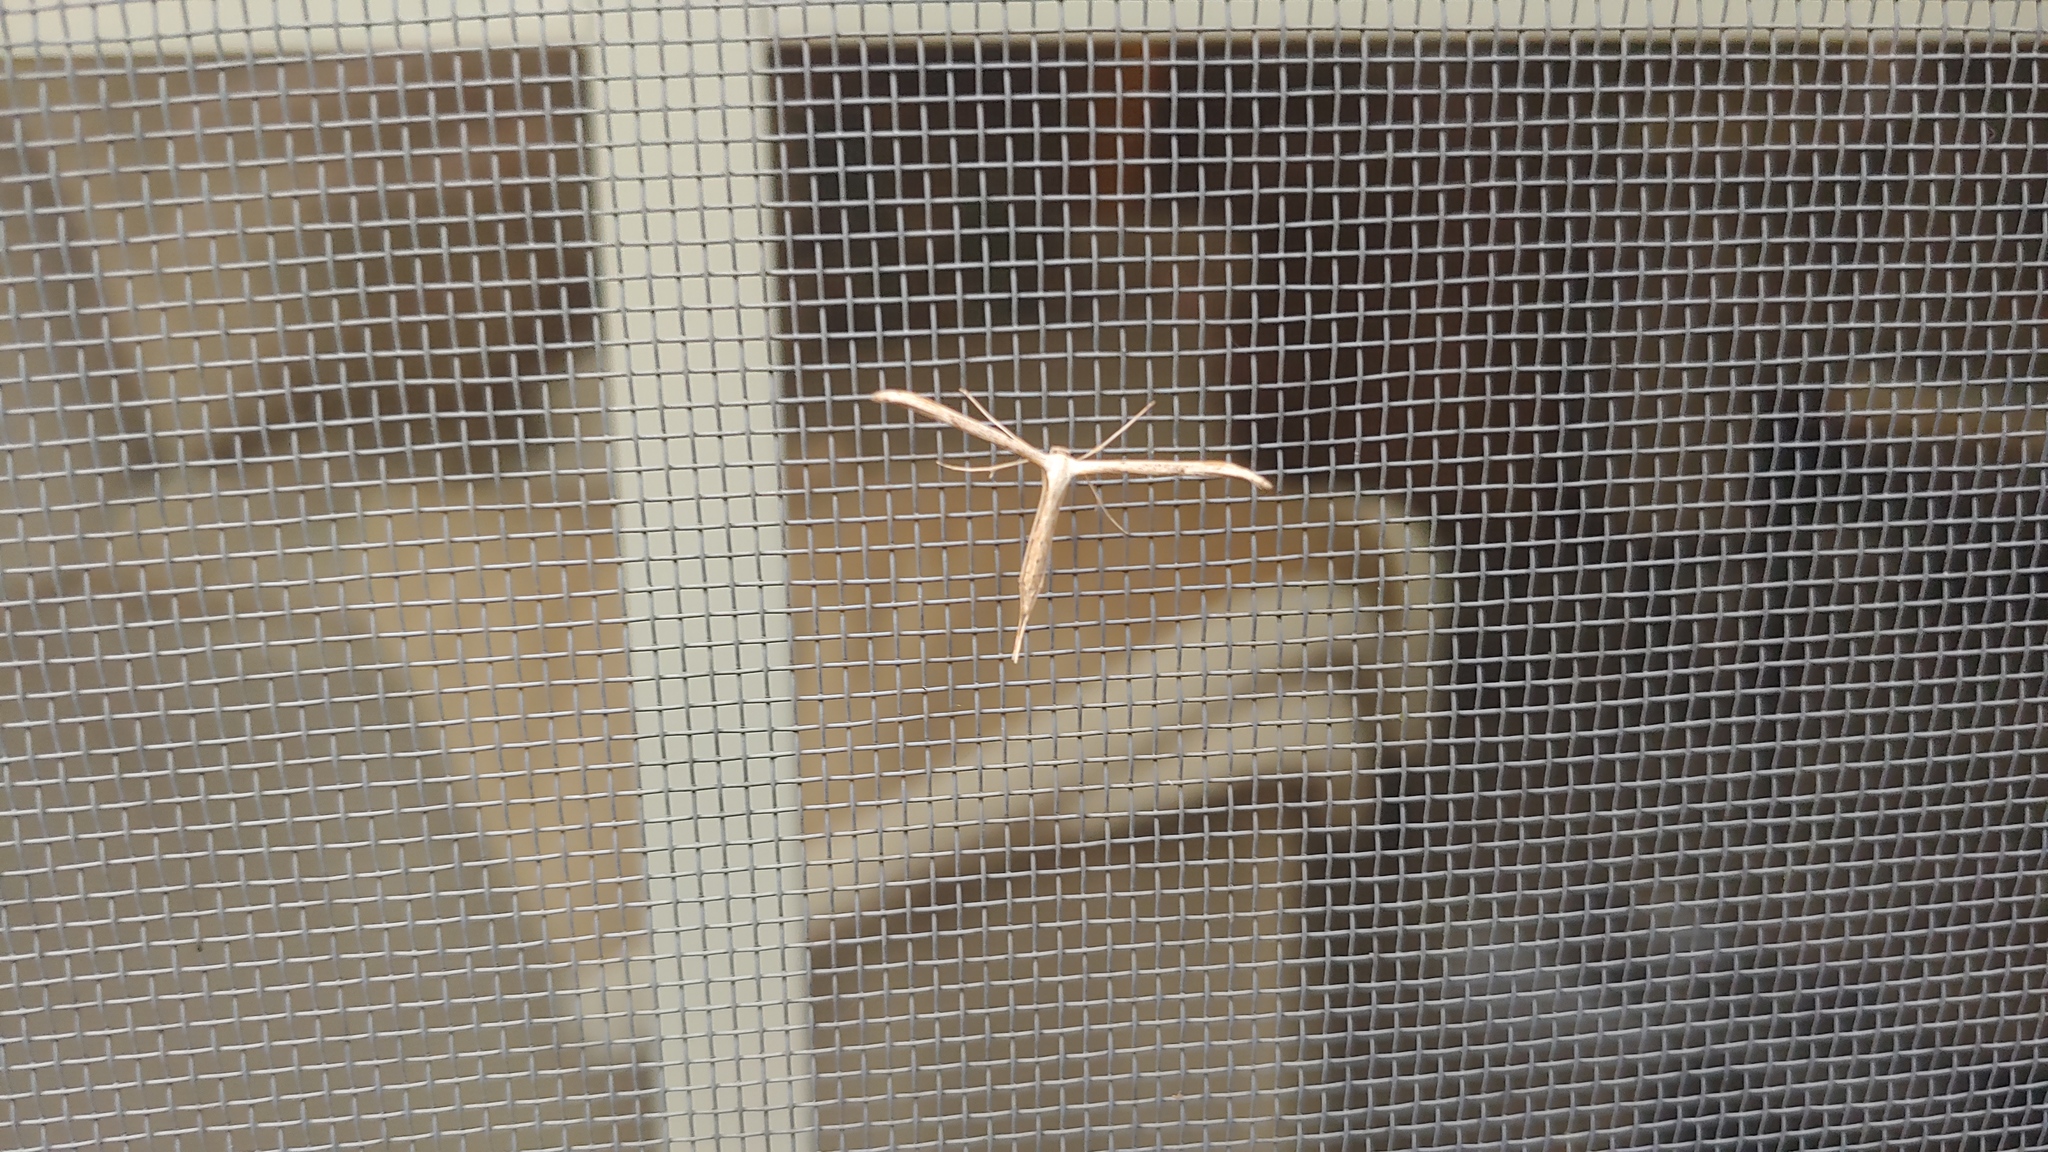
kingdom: Animalia
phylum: Arthropoda
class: Insecta
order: Lepidoptera
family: Pterophoridae
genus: Emmelina
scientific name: Emmelina monodactyla
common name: Common plume
